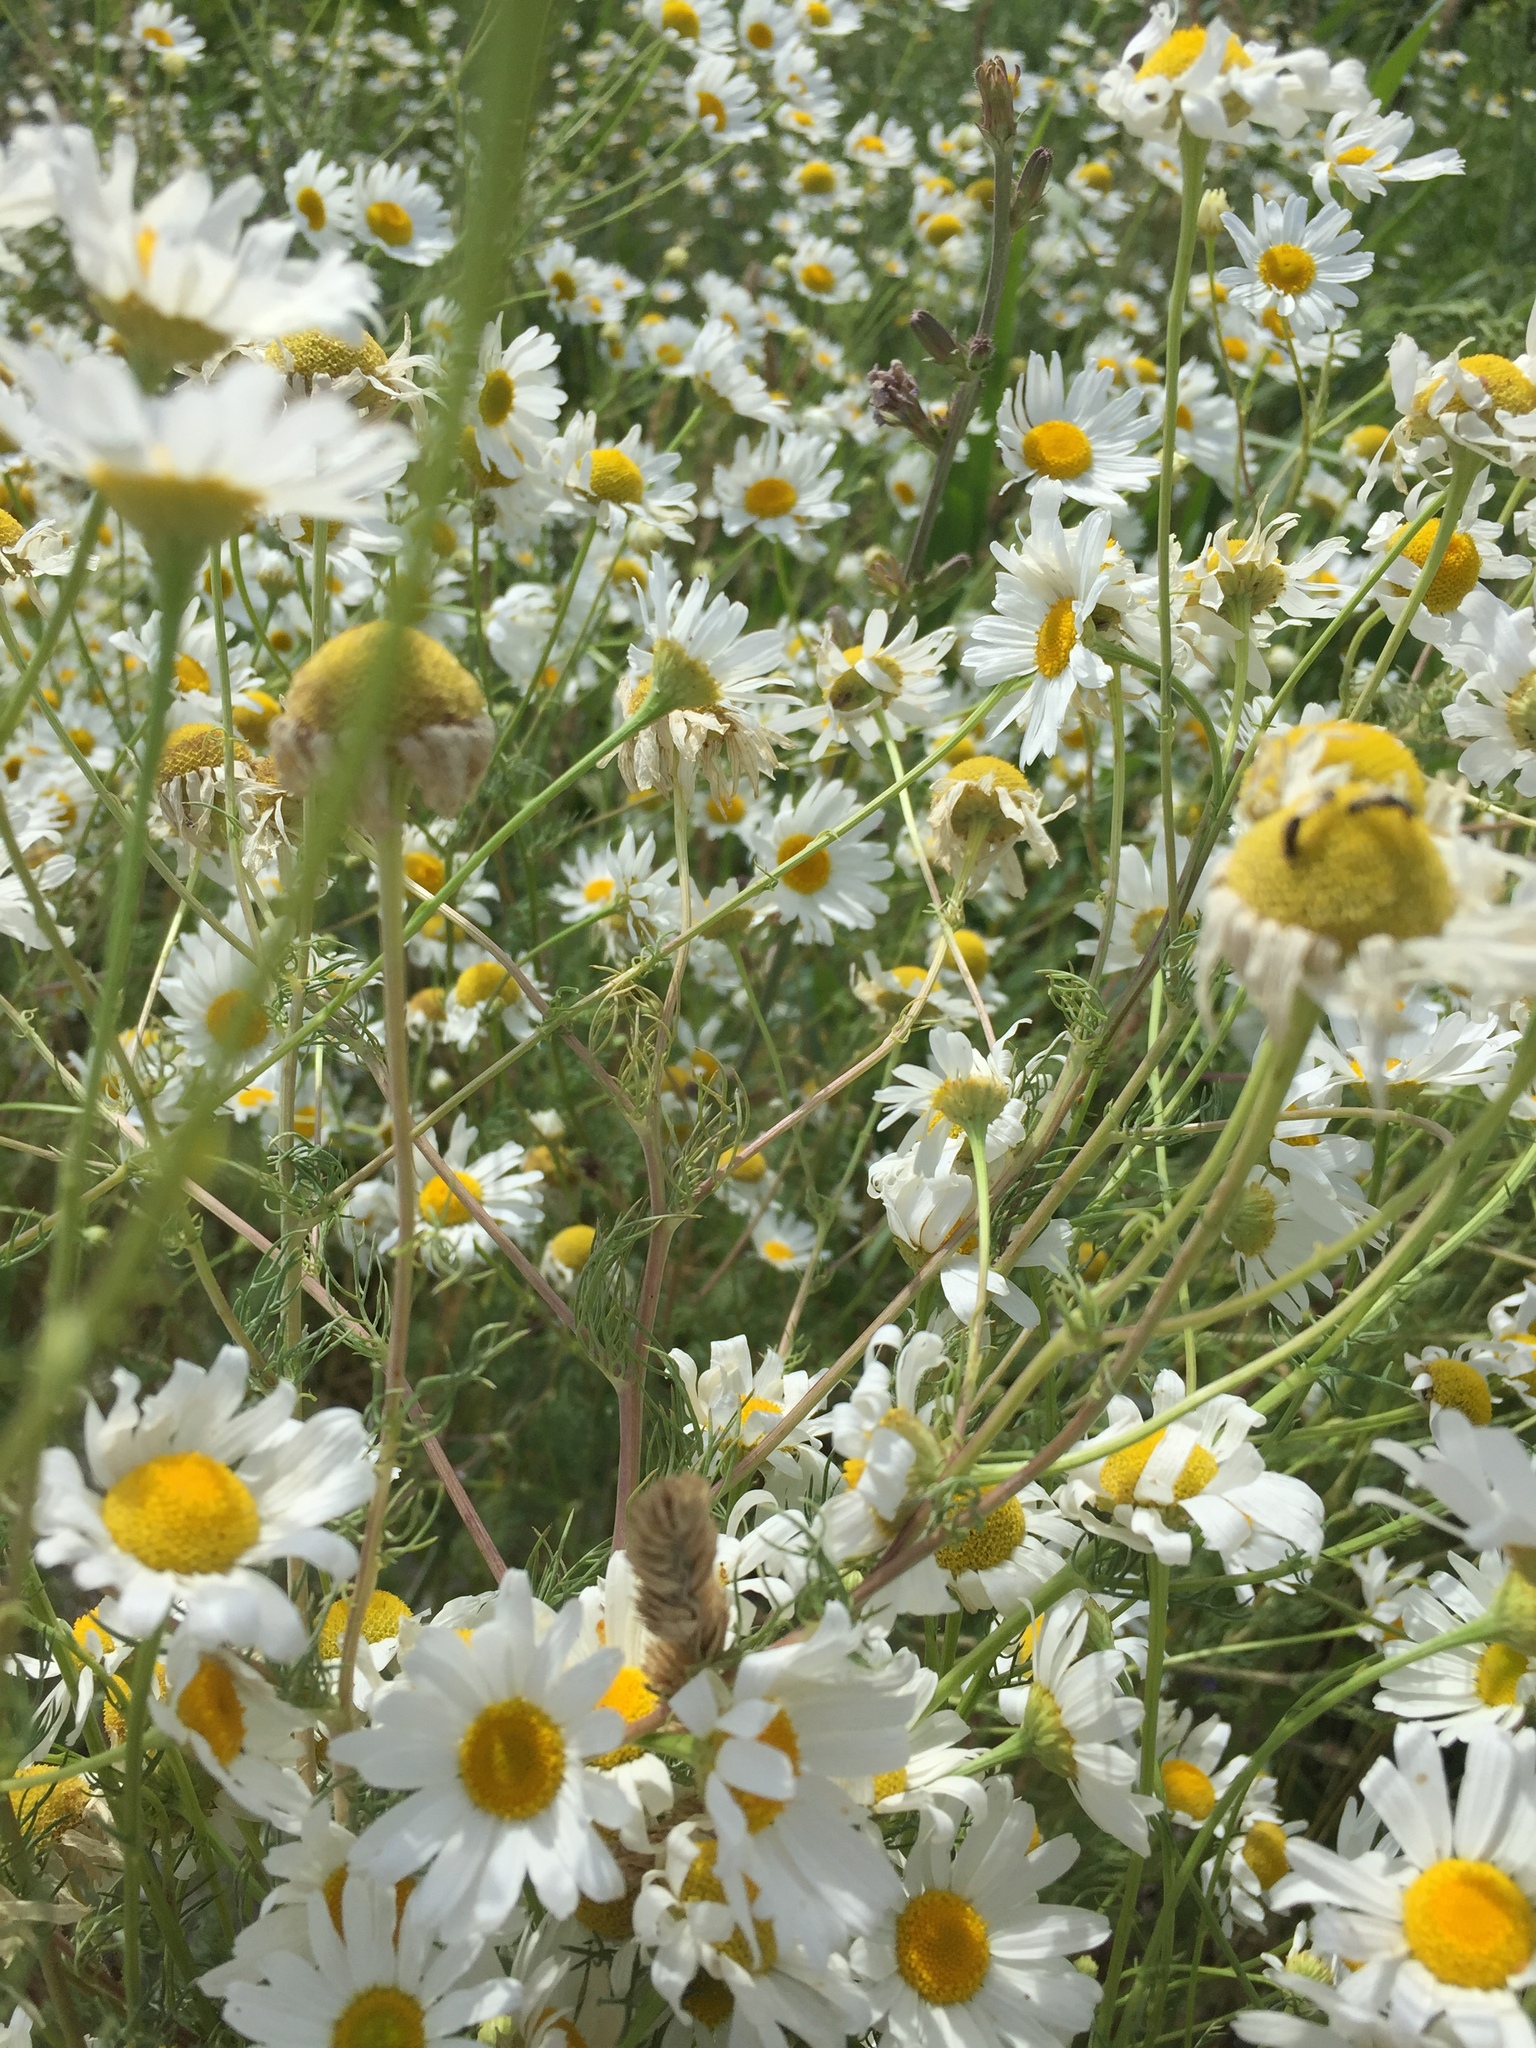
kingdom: Plantae
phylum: Tracheophyta
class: Magnoliopsida
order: Asterales
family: Asteraceae
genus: Tripleurospermum
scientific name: Tripleurospermum inodorum
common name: Scentless mayweed
